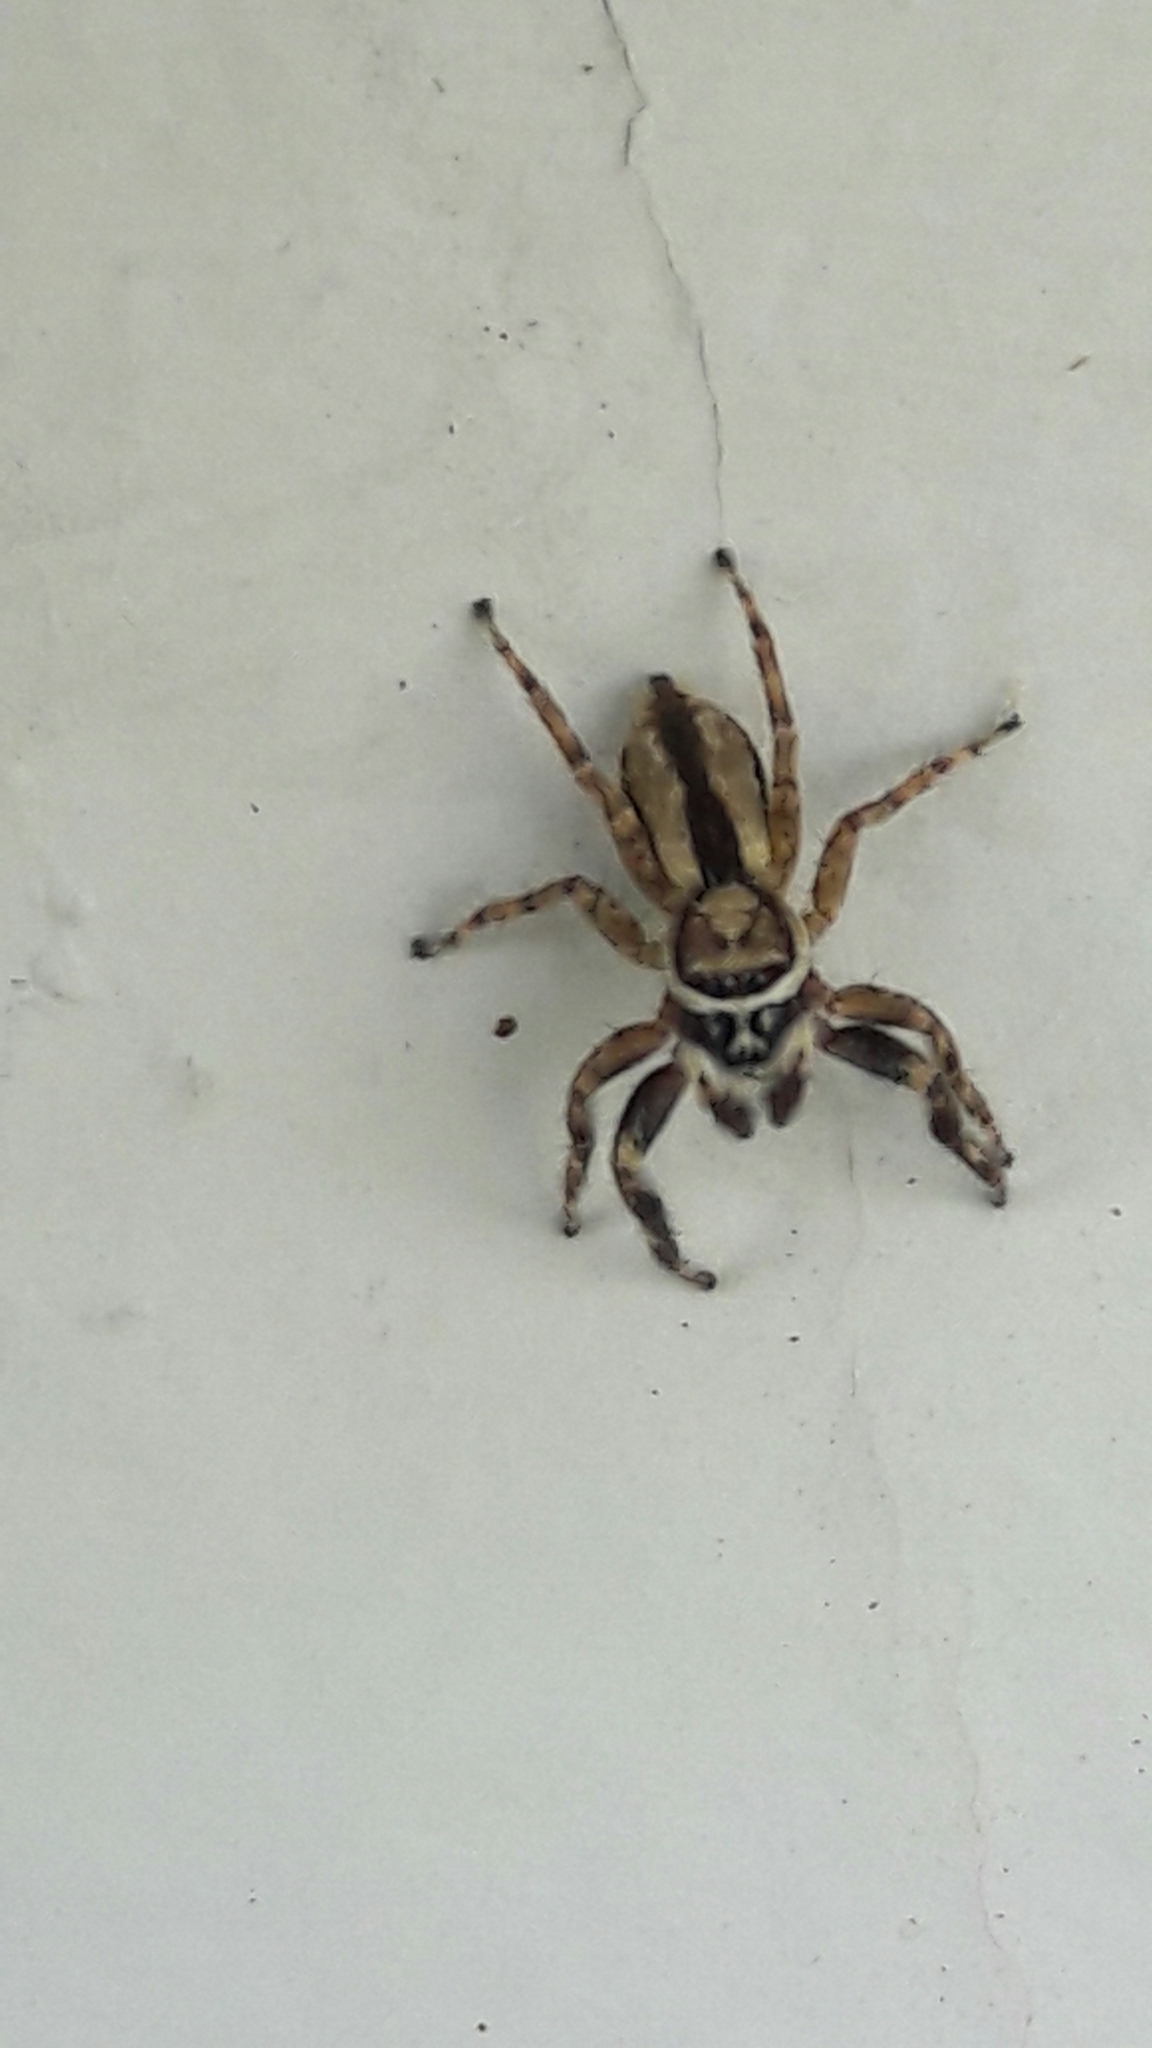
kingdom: Animalia
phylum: Arthropoda
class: Arachnida
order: Araneae
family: Salticidae
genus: Menemerus
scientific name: Menemerus bivittatus
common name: Gray wall jumper
